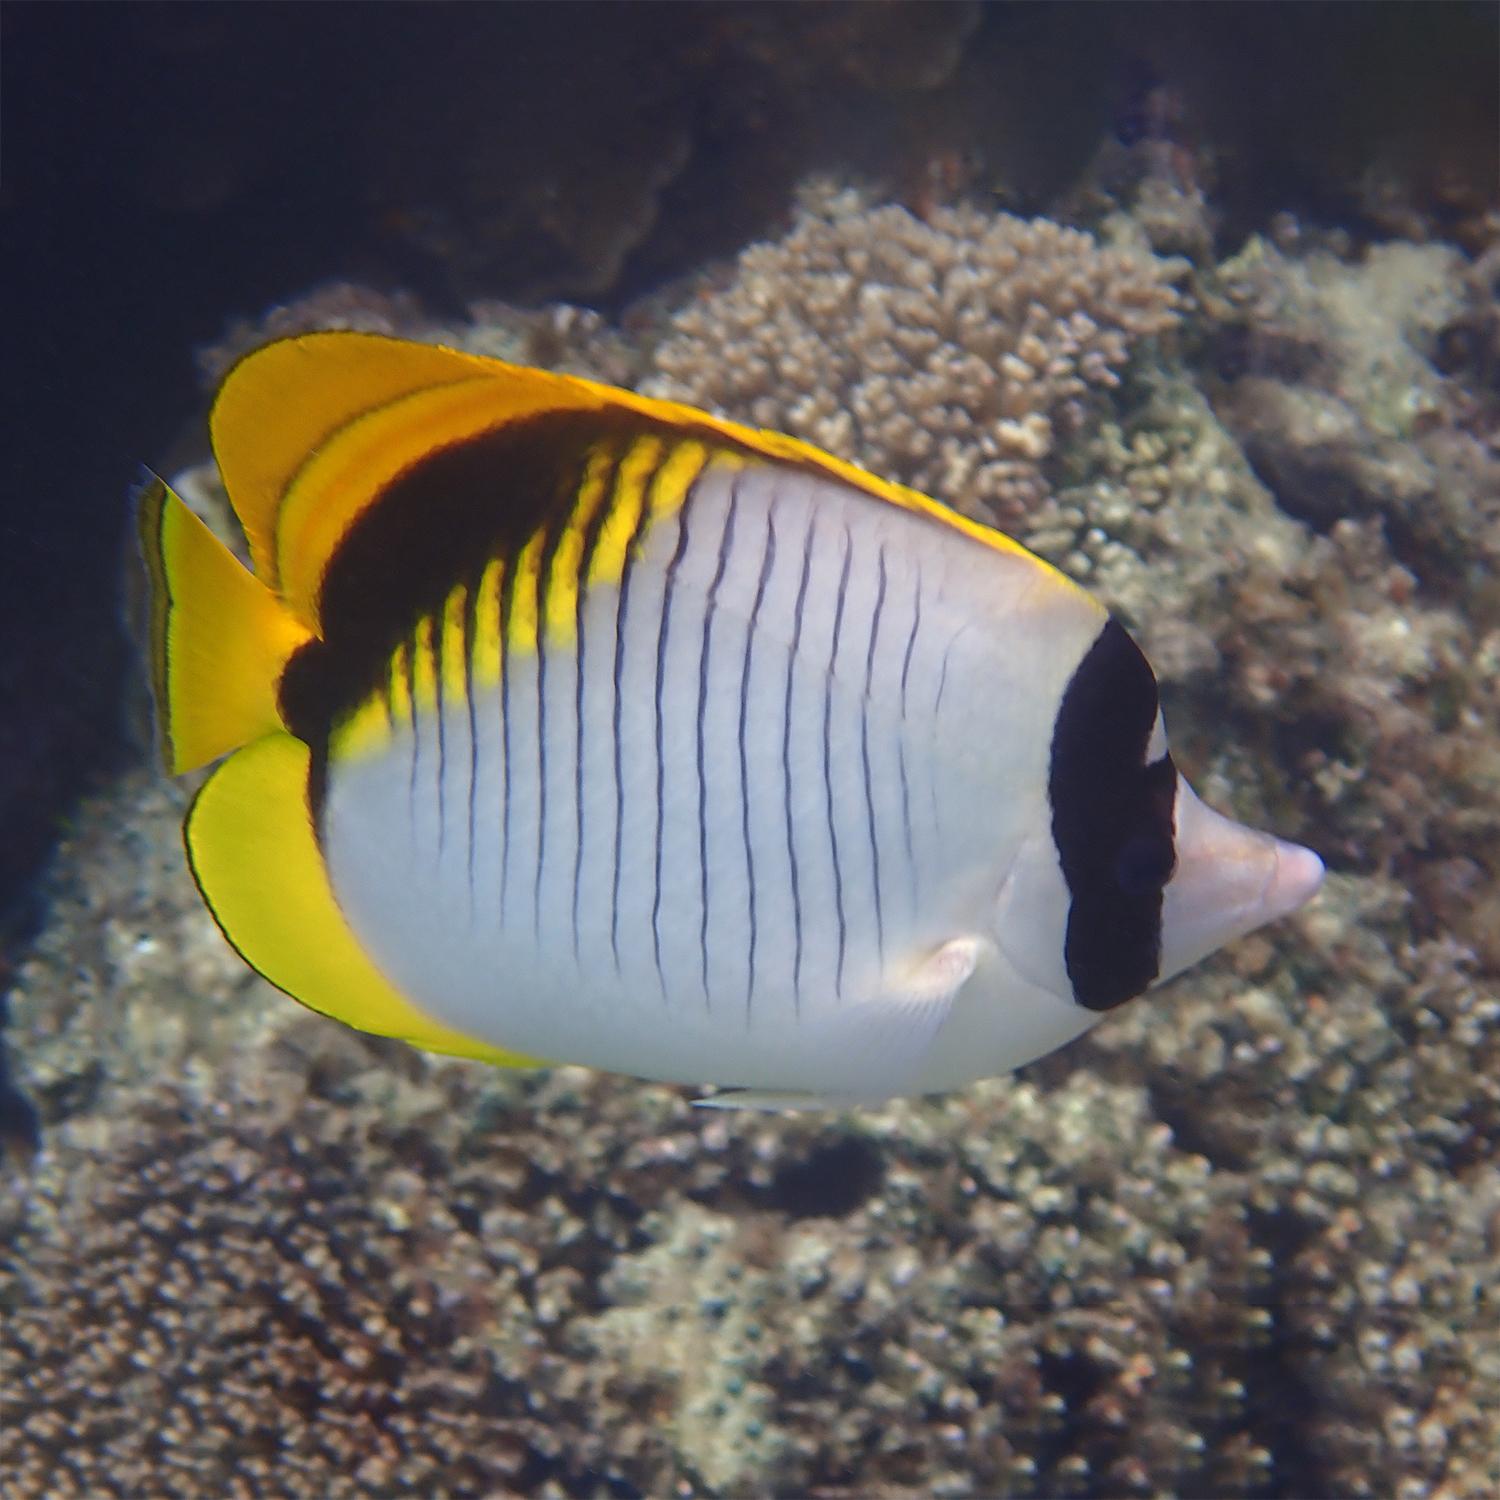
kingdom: Animalia
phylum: Chordata
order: Perciformes
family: Chaetodontidae
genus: Chaetodon
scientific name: Chaetodon lineolatus
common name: Lined butterflyfish
